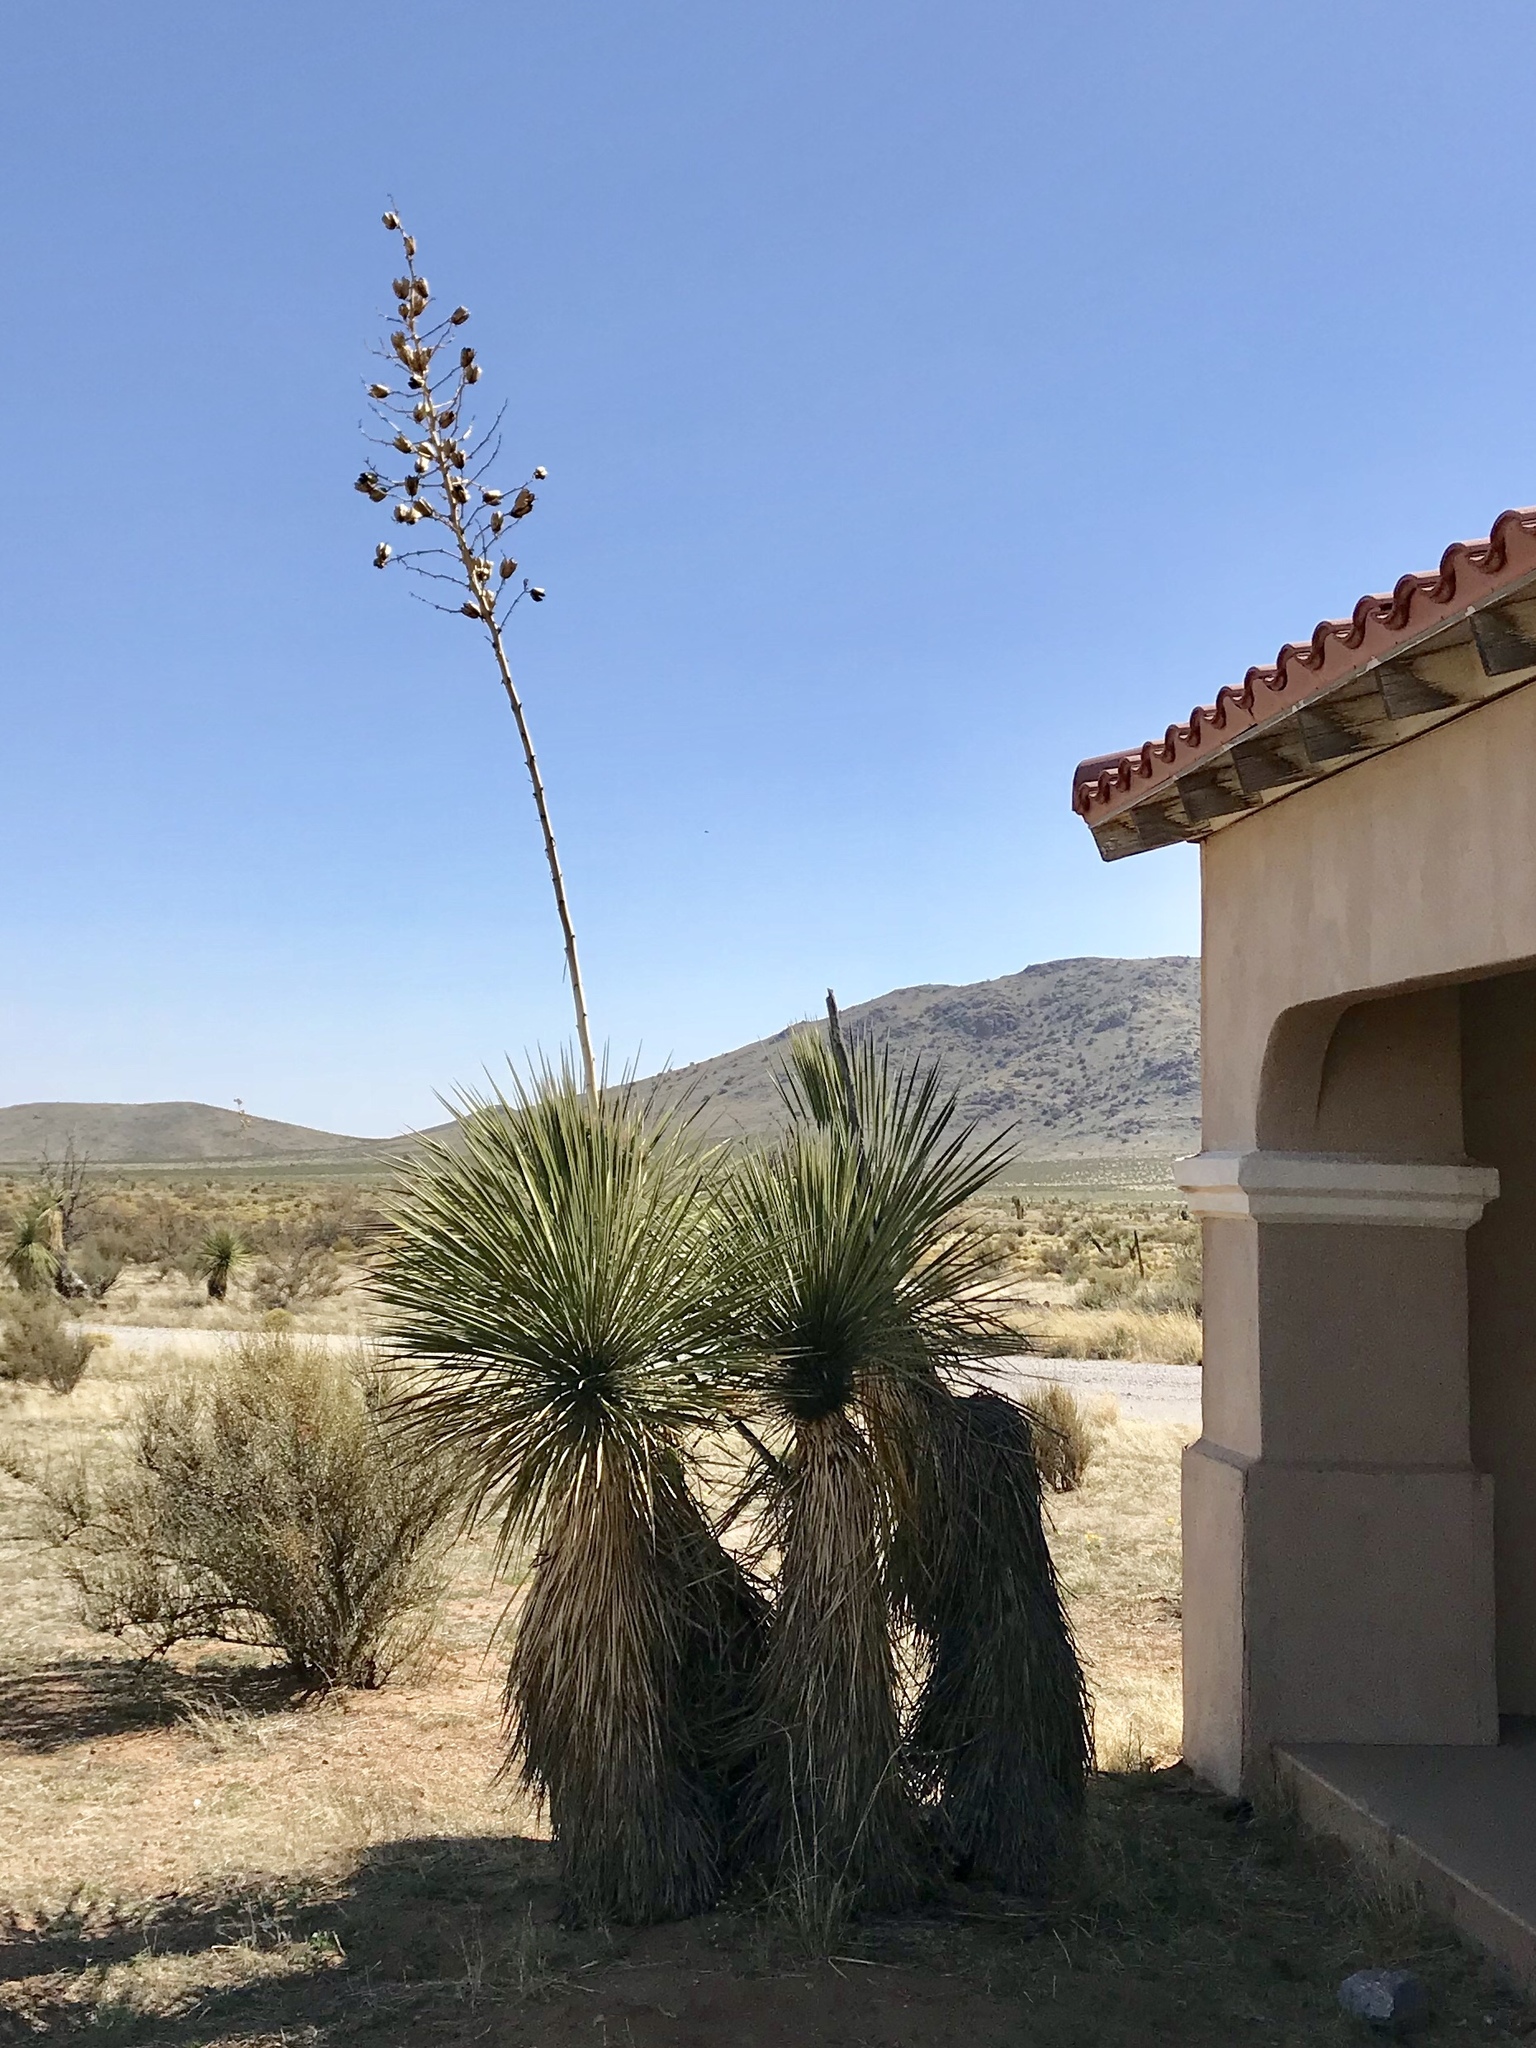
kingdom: Plantae
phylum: Tracheophyta
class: Liliopsida
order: Asparagales
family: Asparagaceae
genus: Yucca
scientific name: Yucca elata
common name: Palmella
